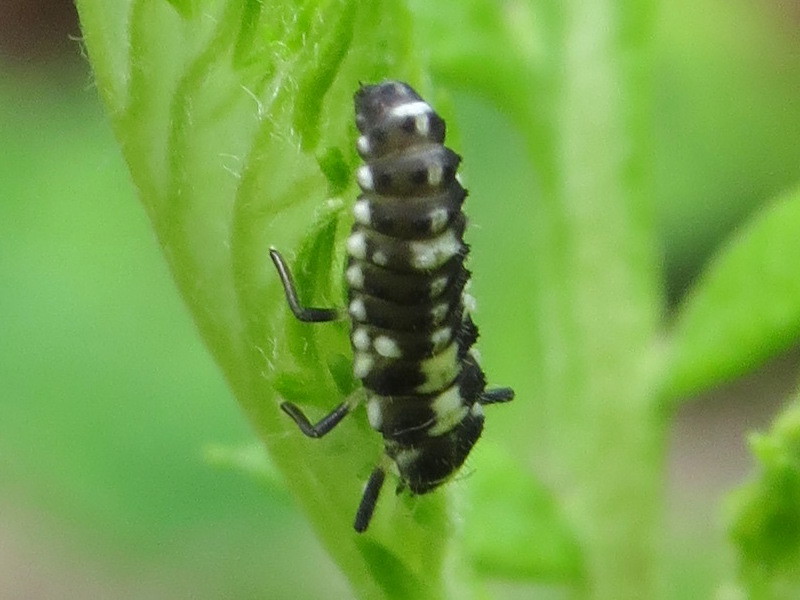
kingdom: Animalia
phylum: Arthropoda
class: Insecta
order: Coleoptera
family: Coccinellidae
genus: Propylaea
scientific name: Propylaea quatuordecimpunctata
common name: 14-spotted ladybird beetle
